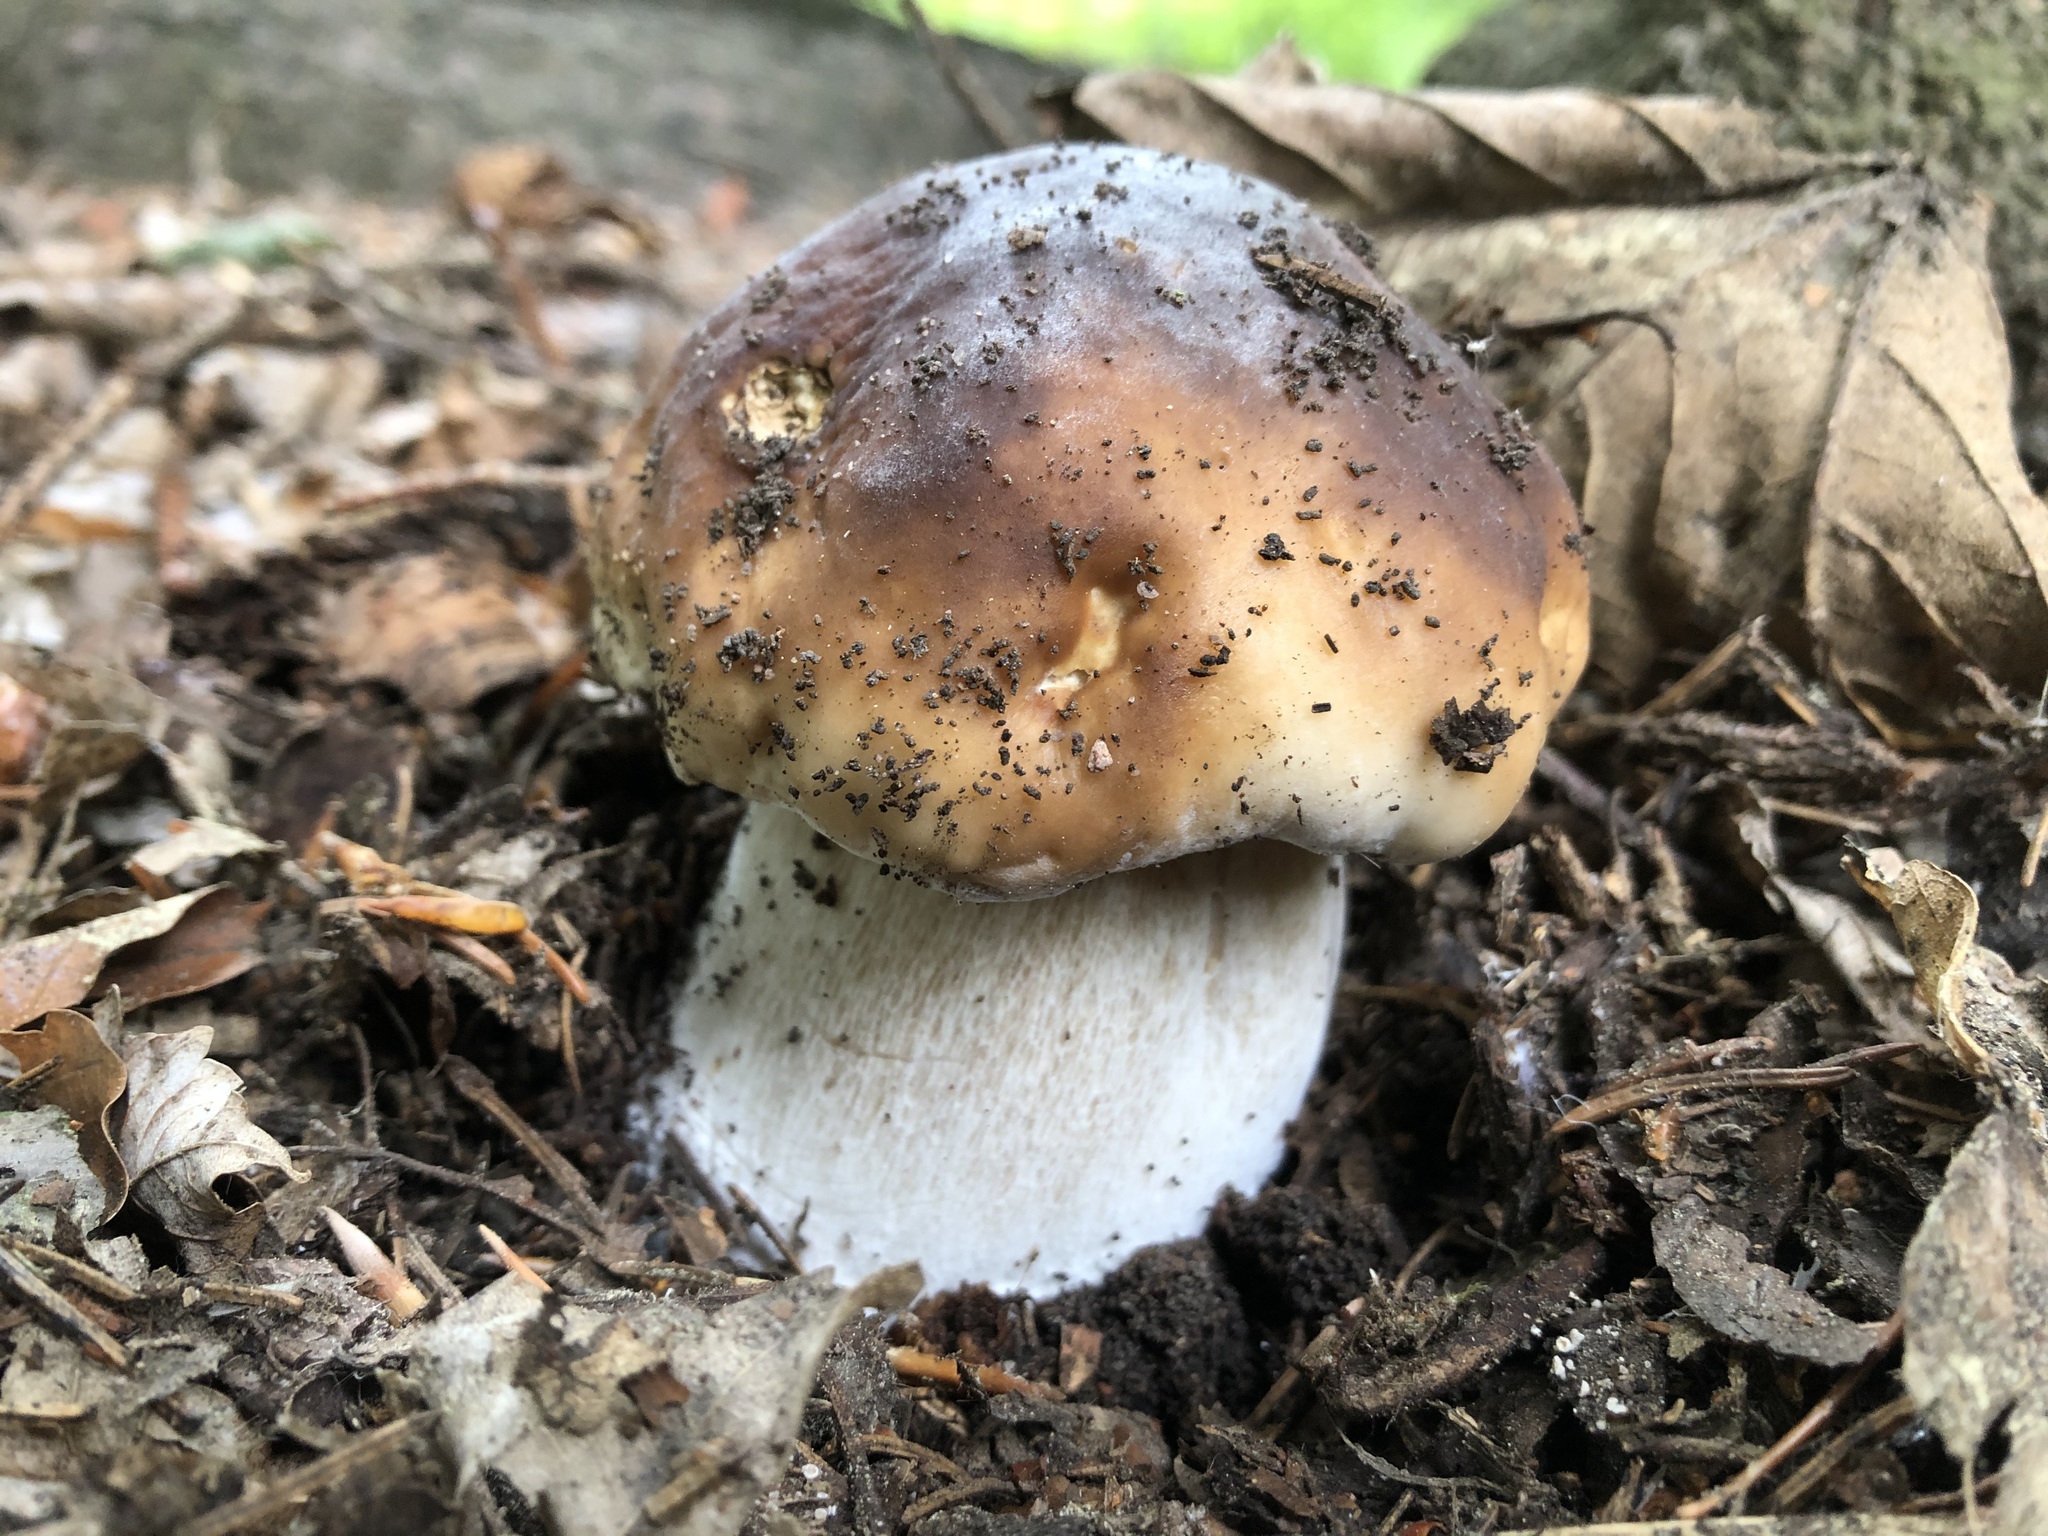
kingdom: Fungi
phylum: Basidiomycota
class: Agaricomycetes
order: Boletales
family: Boletaceae
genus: Boletus
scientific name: Boletus edulis
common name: Cep
